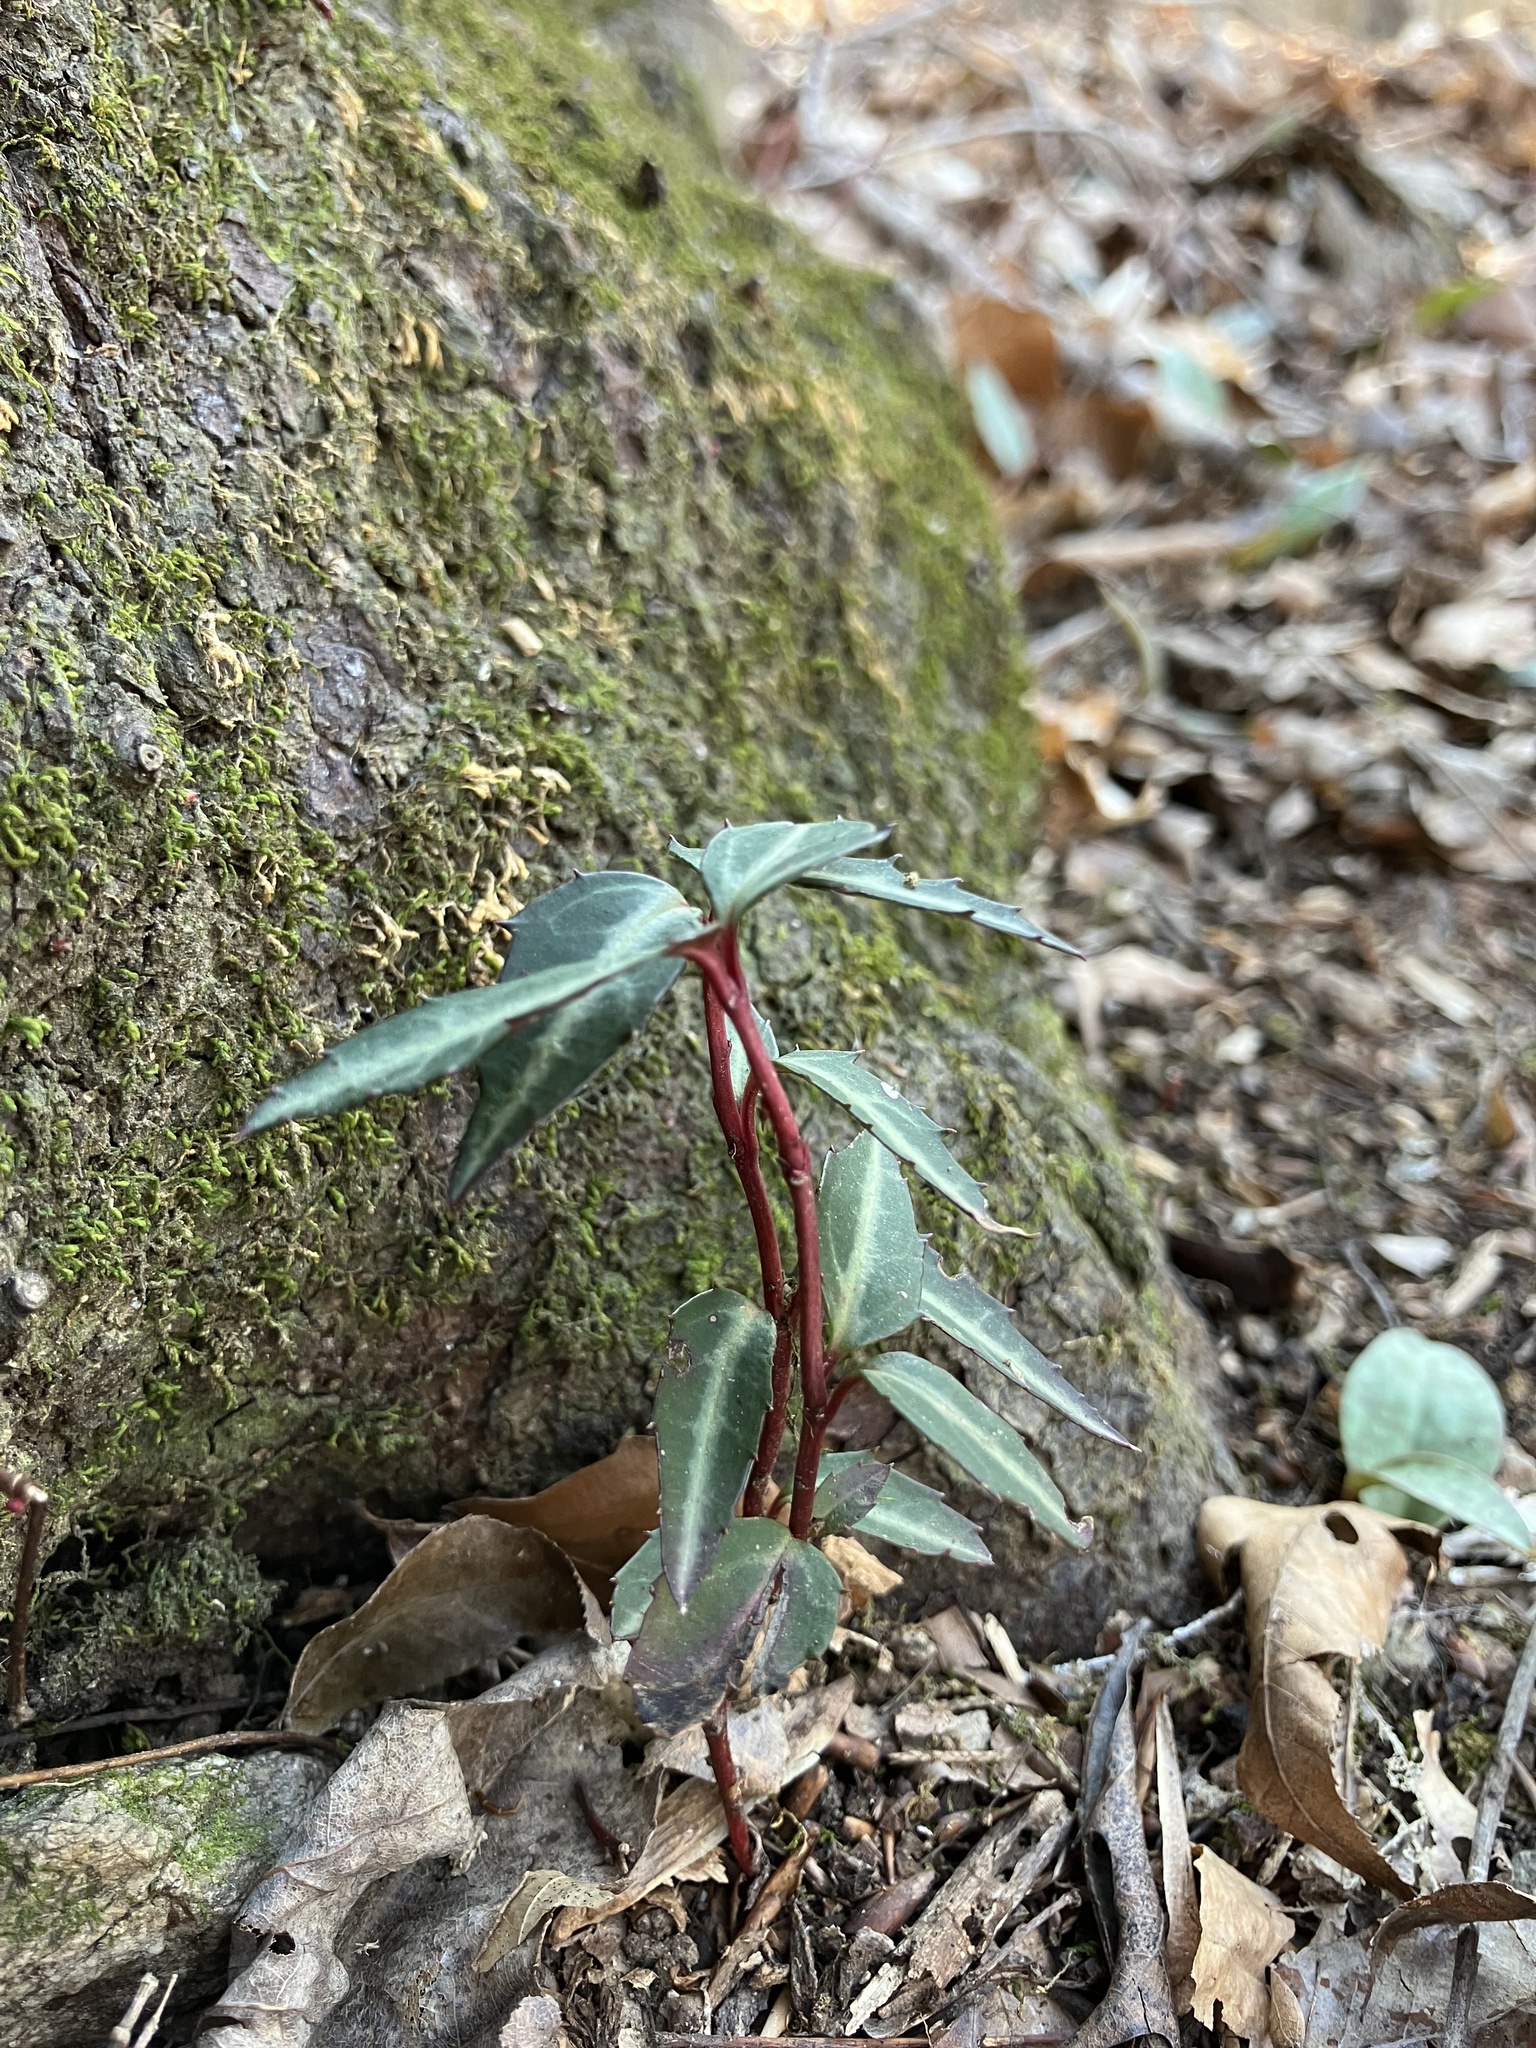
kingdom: Plantae
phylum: Tracheophyta
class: Magnoliopsida
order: Ericales
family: Ericaceae
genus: Chimaphila
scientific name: Chimaphila maculata
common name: Spotted pipsissewa
